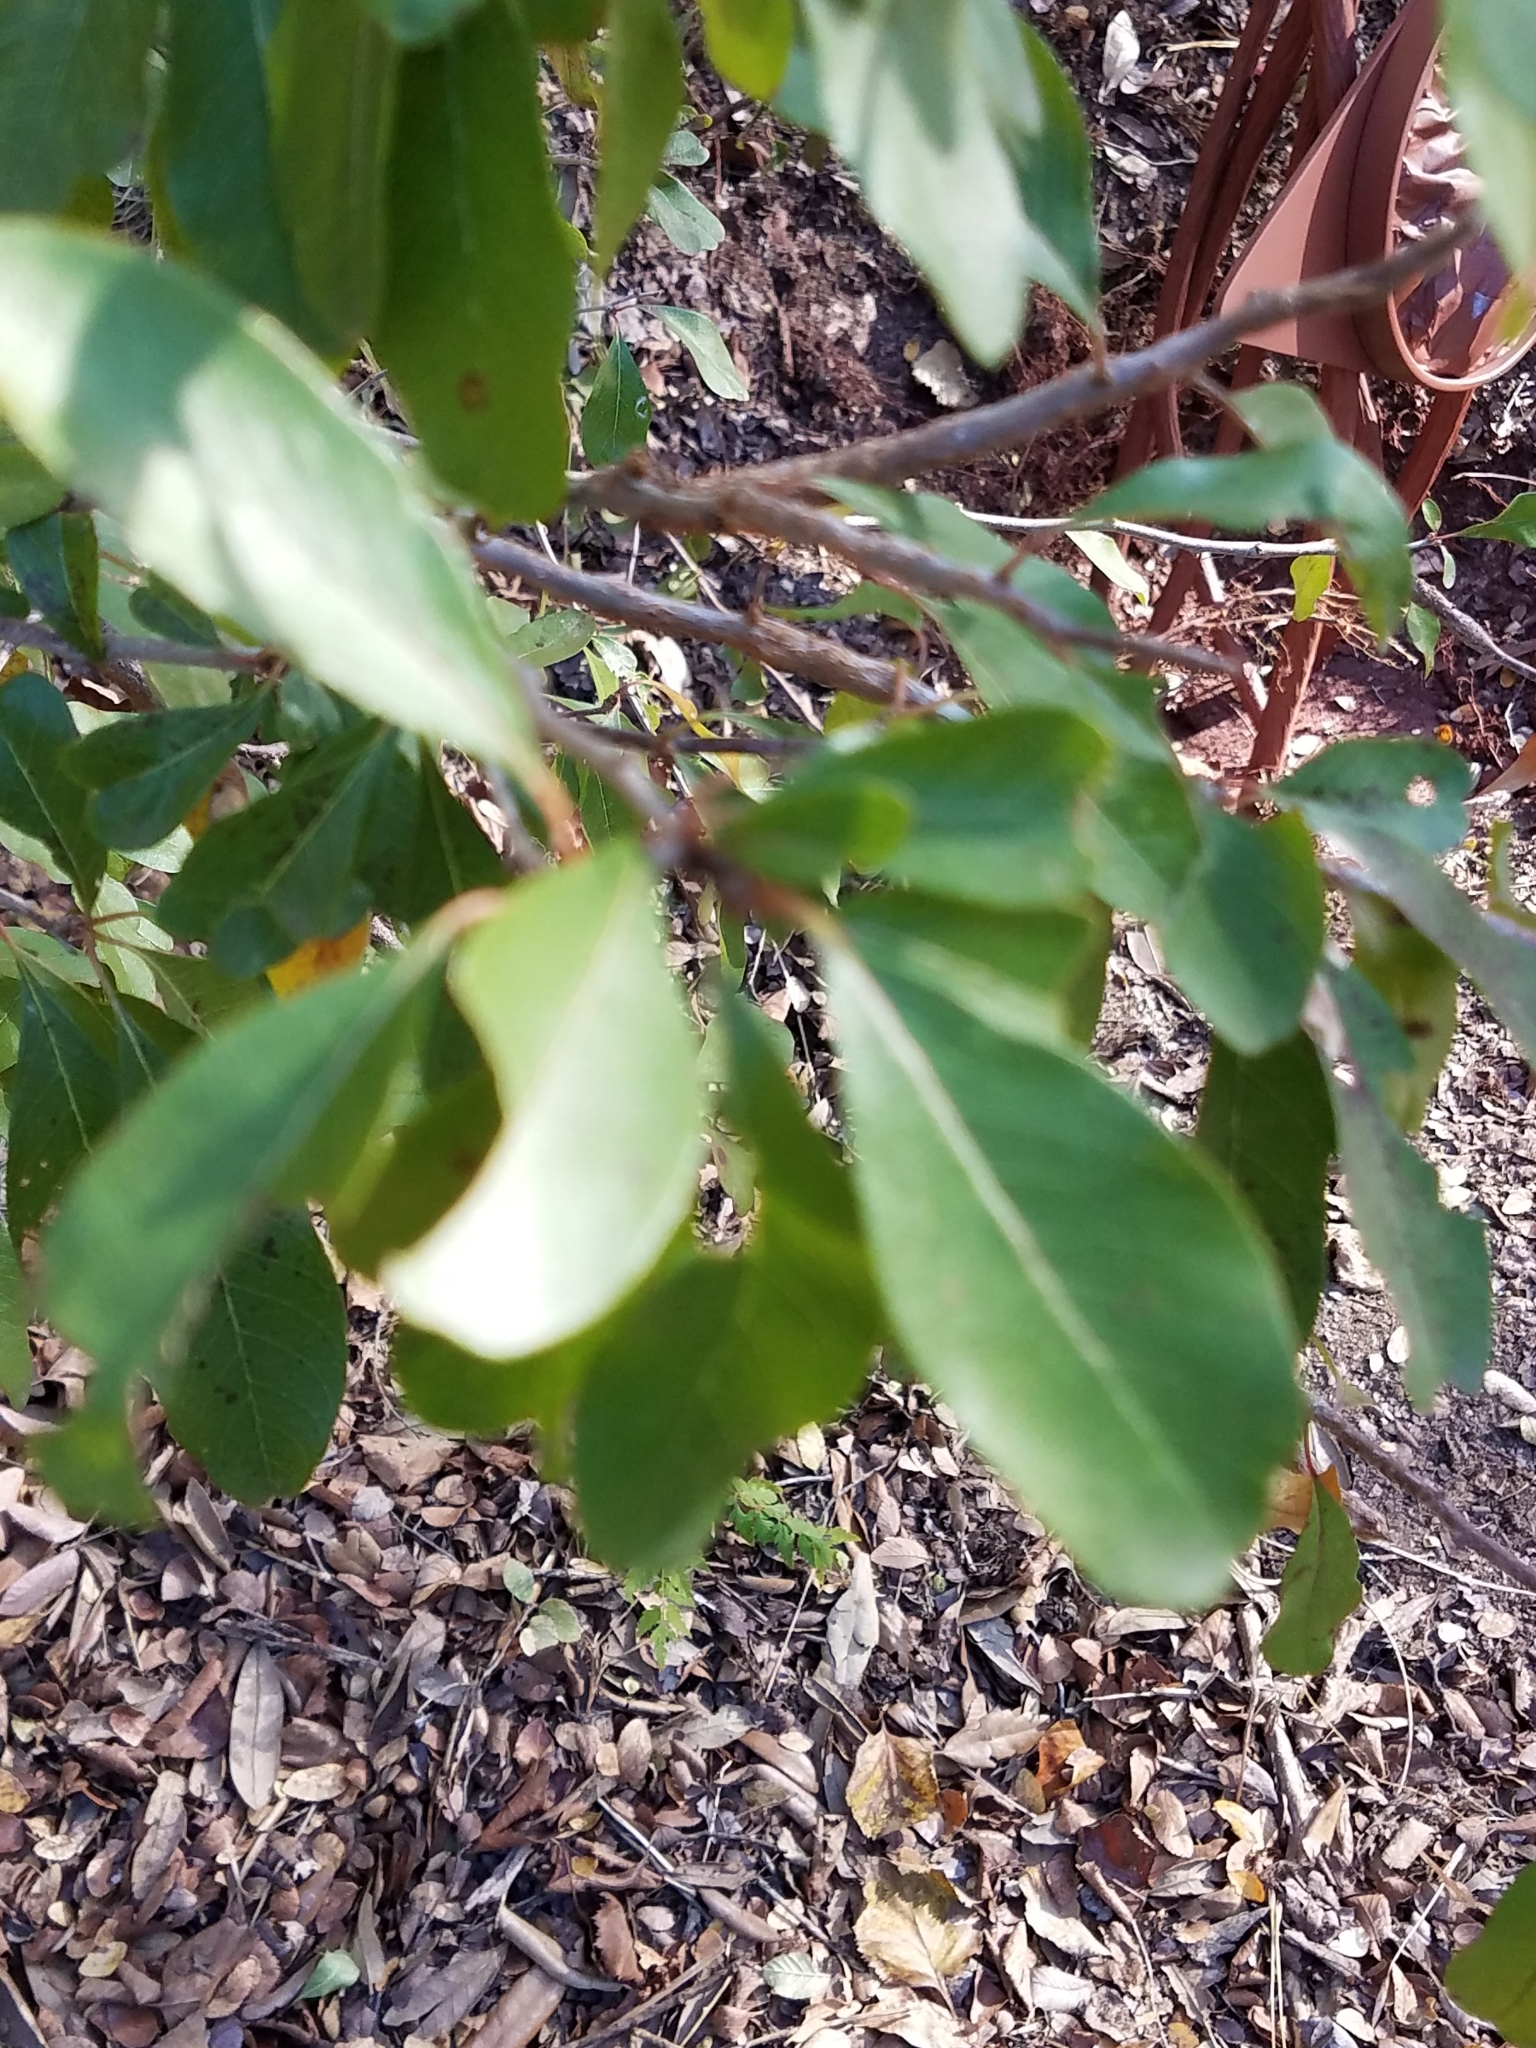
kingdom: Plantae
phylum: Tracheophyta
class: Magnoliopsida
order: Ericales
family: Sapotaceae
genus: Sideroxylon
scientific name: Sideroxylon lanuginosum
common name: Chittamwood
